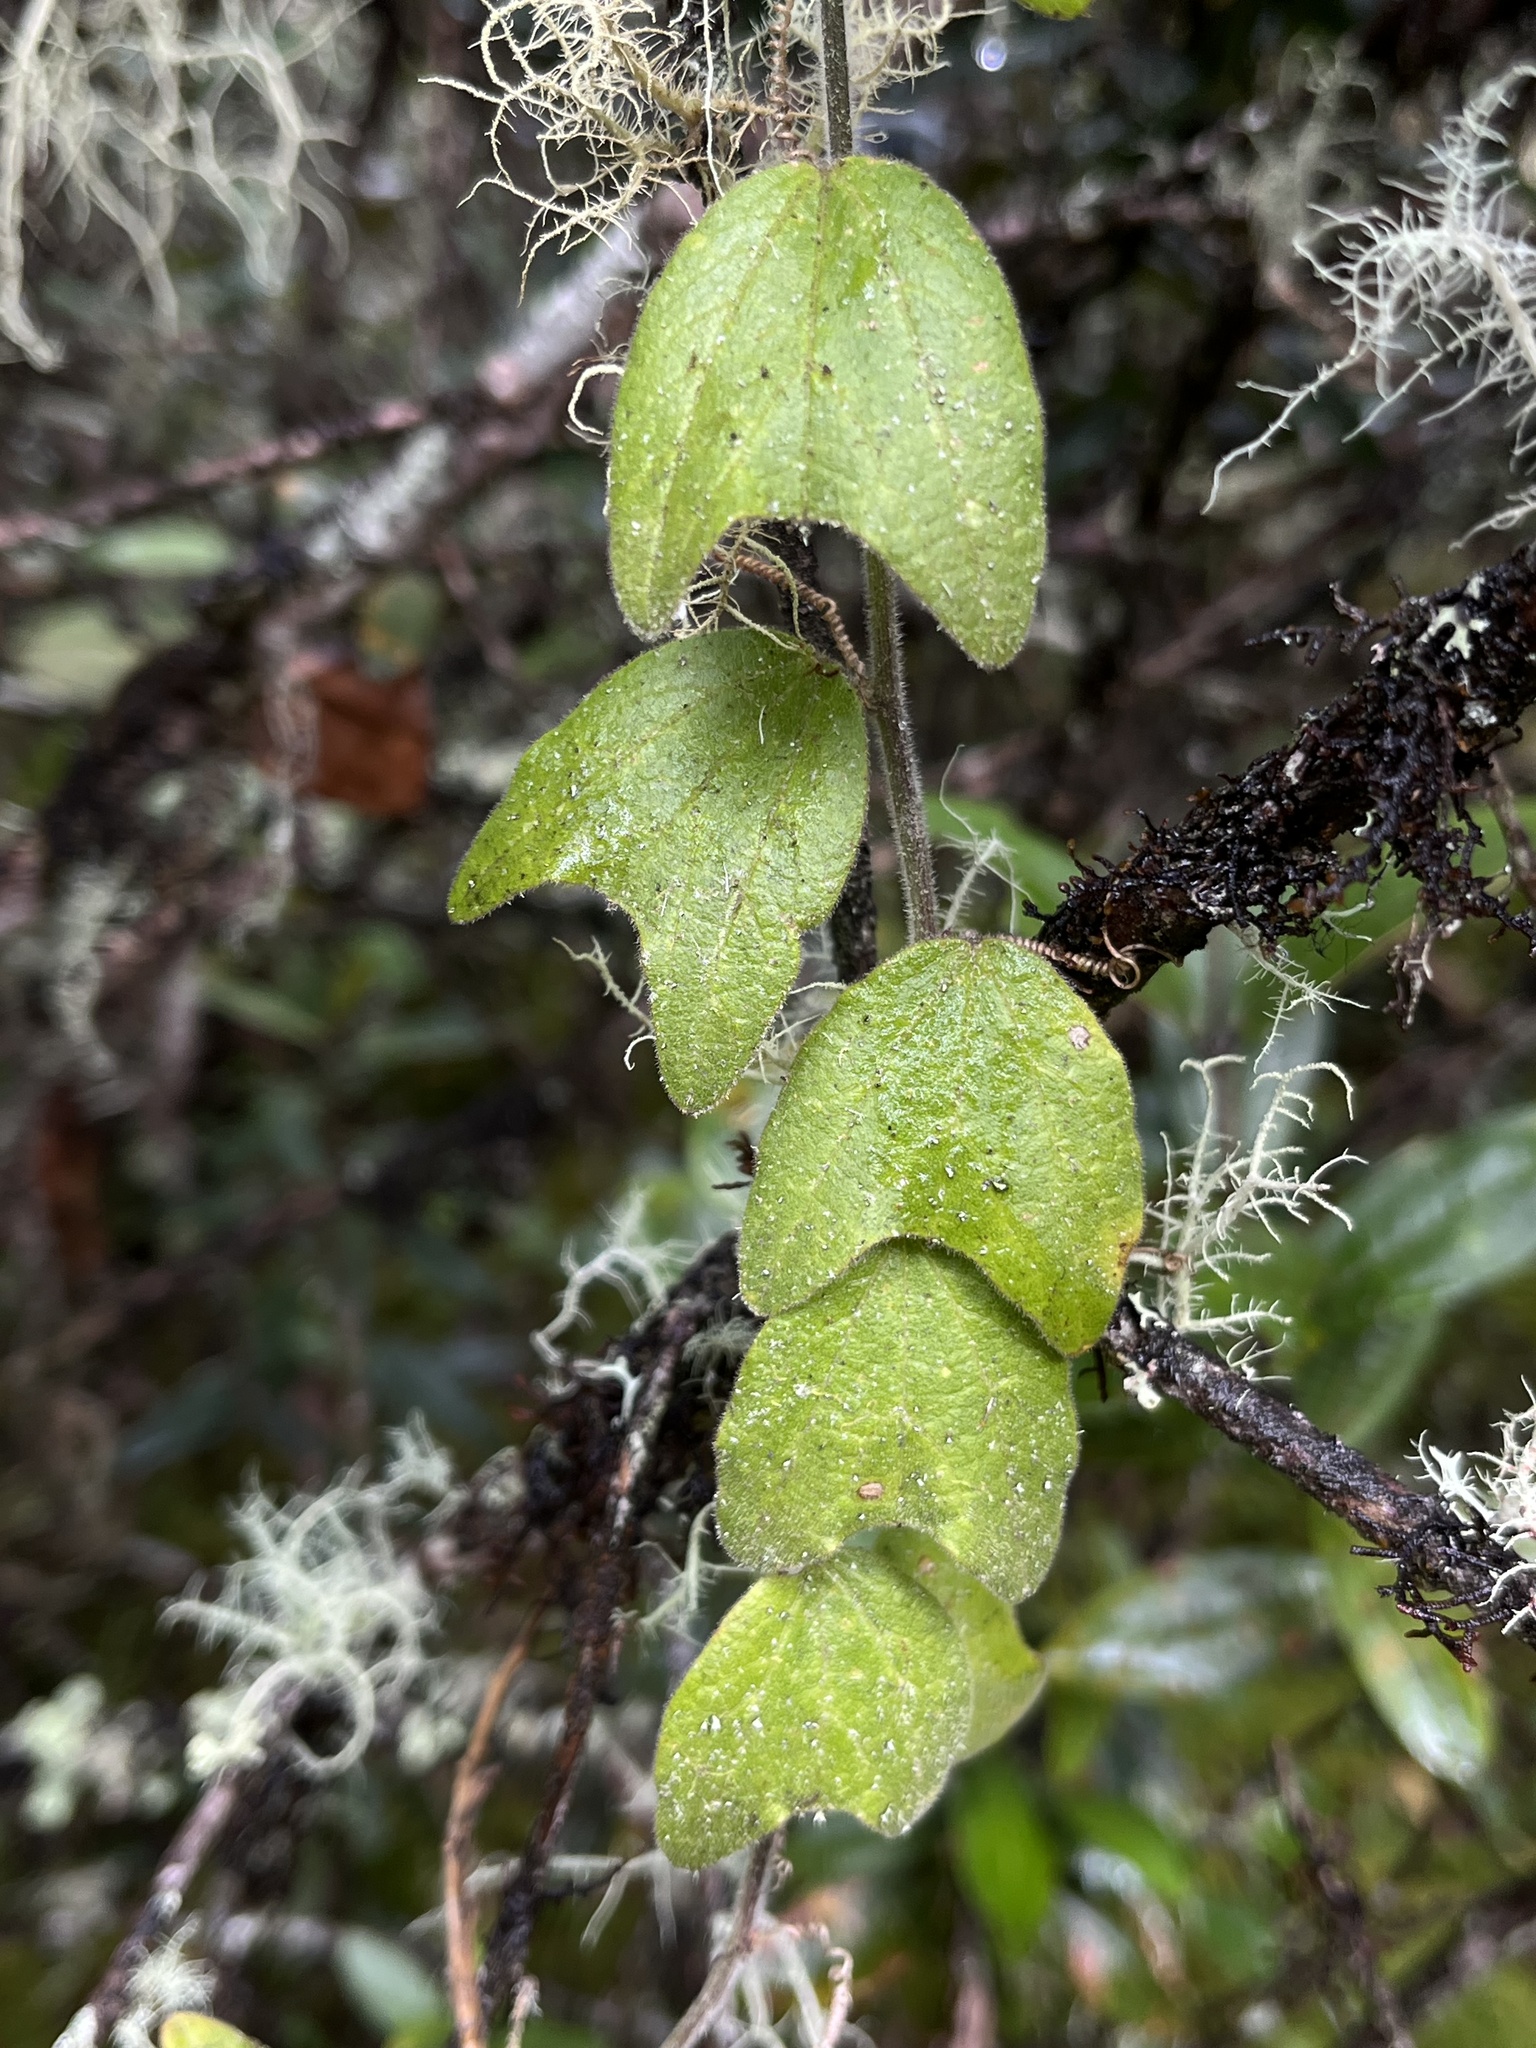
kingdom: Plantae
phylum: Tracheophyta
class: Magnoliopsida
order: Malpighiales
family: Passifloraceae
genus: Passiflora
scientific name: Passiflora bogotensis
